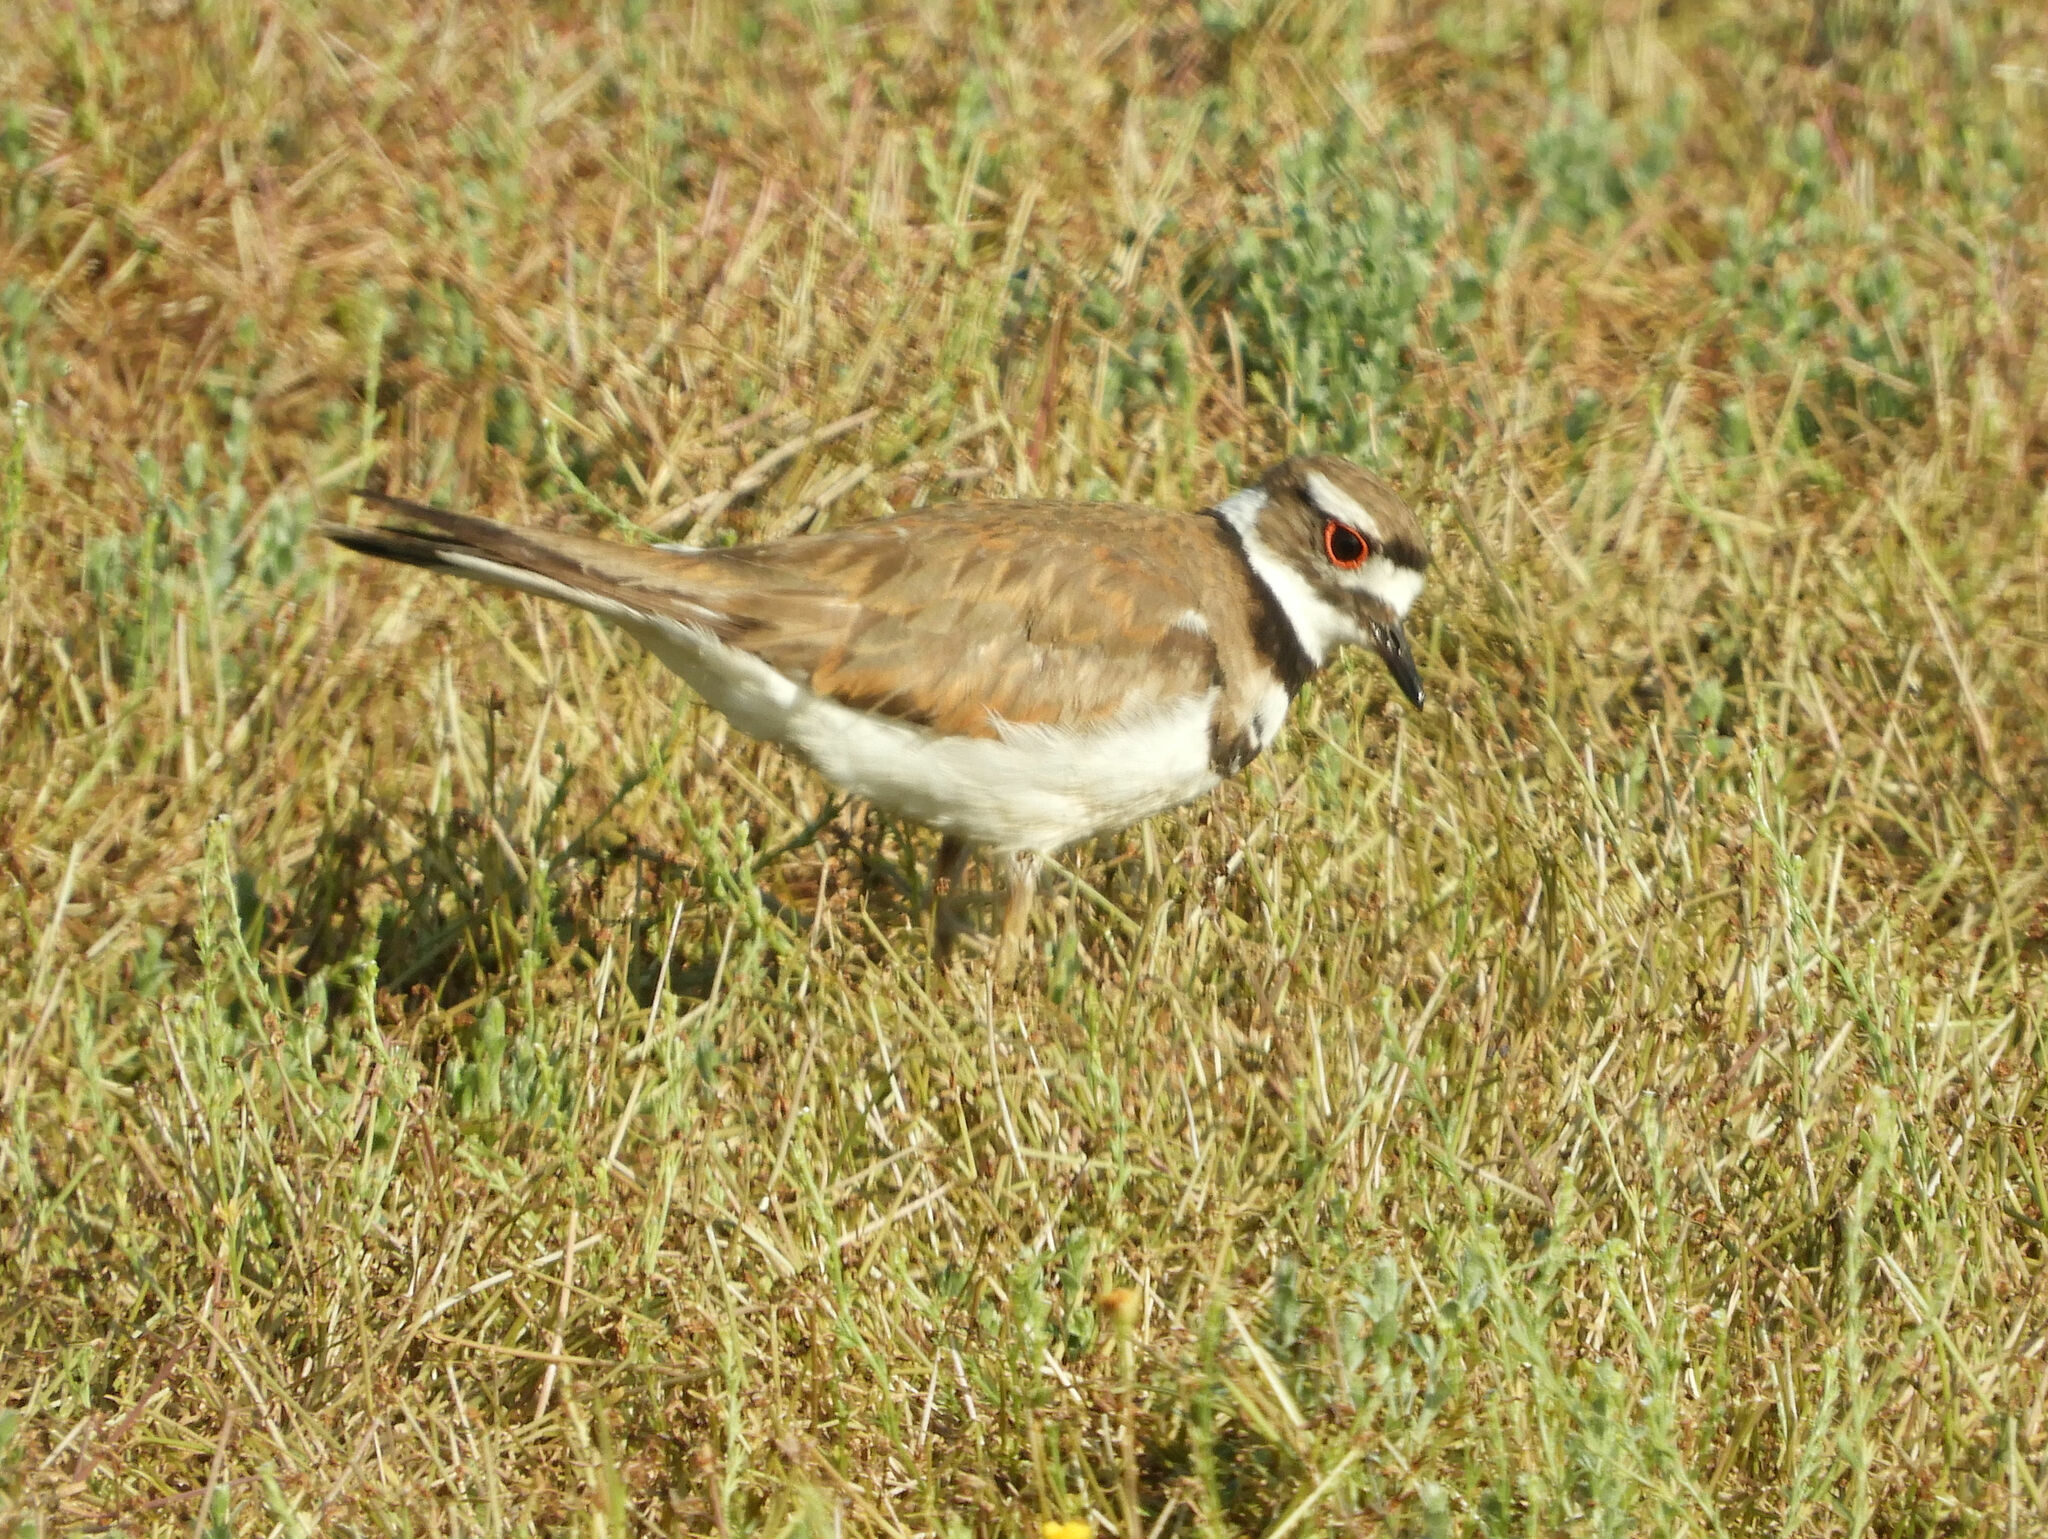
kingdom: Animalia
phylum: Chordata
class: Aves
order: Charadriiformes
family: Charadriidae
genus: Charadrius
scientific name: Charadrius vociferus
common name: Killdeer
